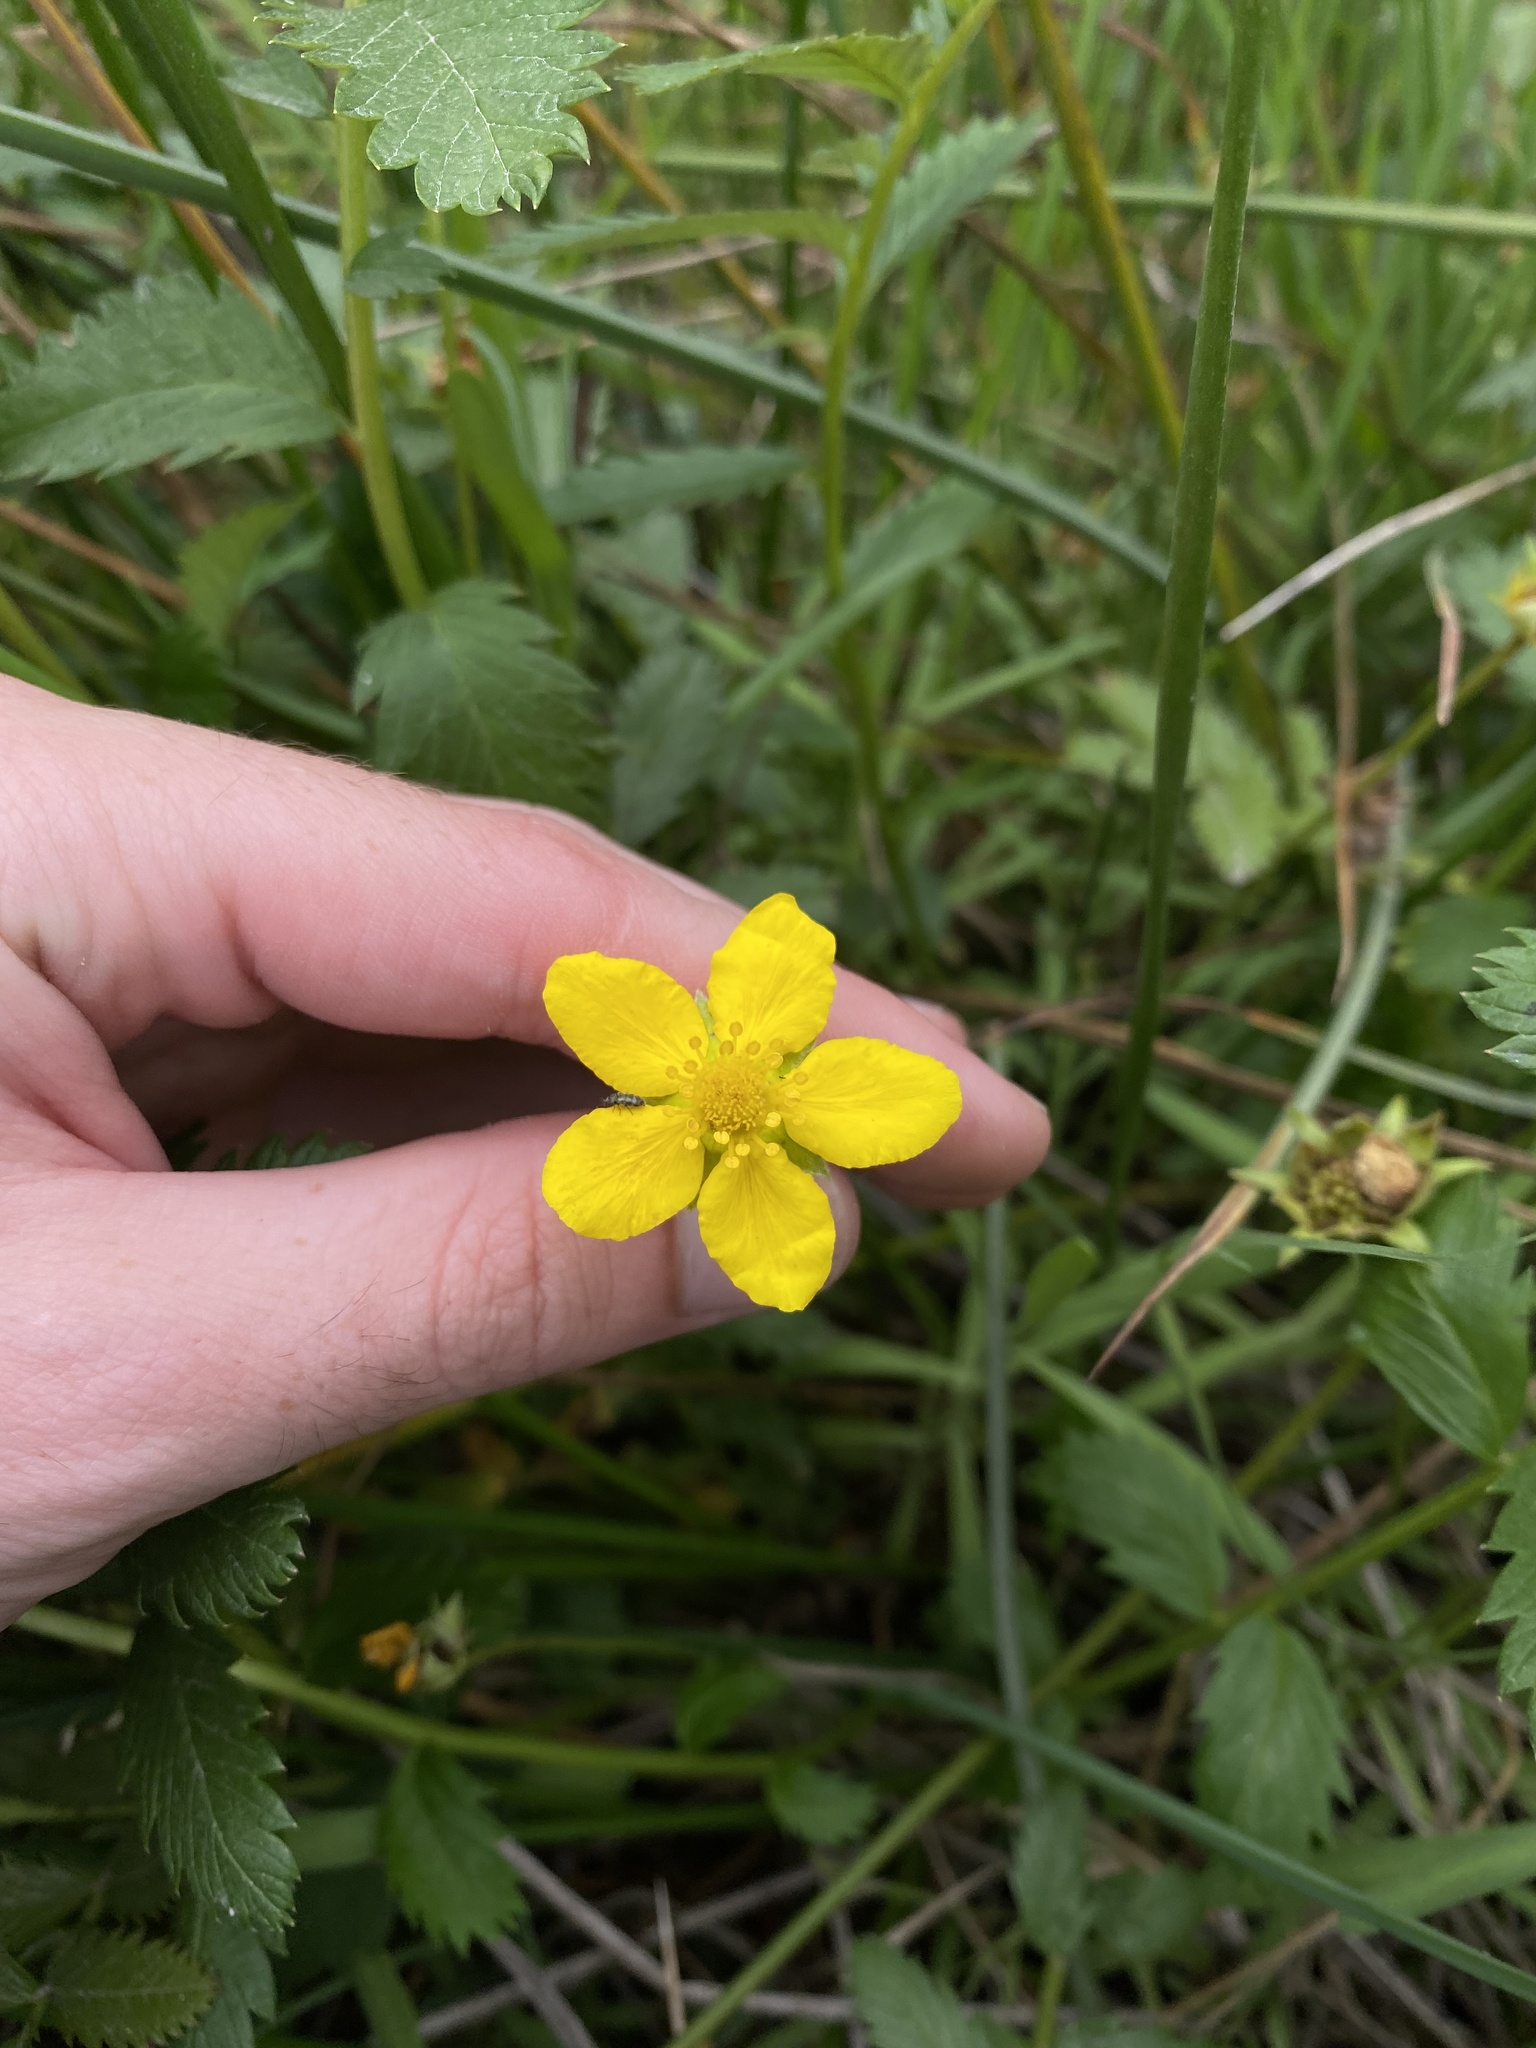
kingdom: Plantae
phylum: Tracheophyta
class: Magnoliopsida
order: Rosales
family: Rosaceae
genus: Argentina
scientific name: Argentina anserina
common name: Common silverweed
